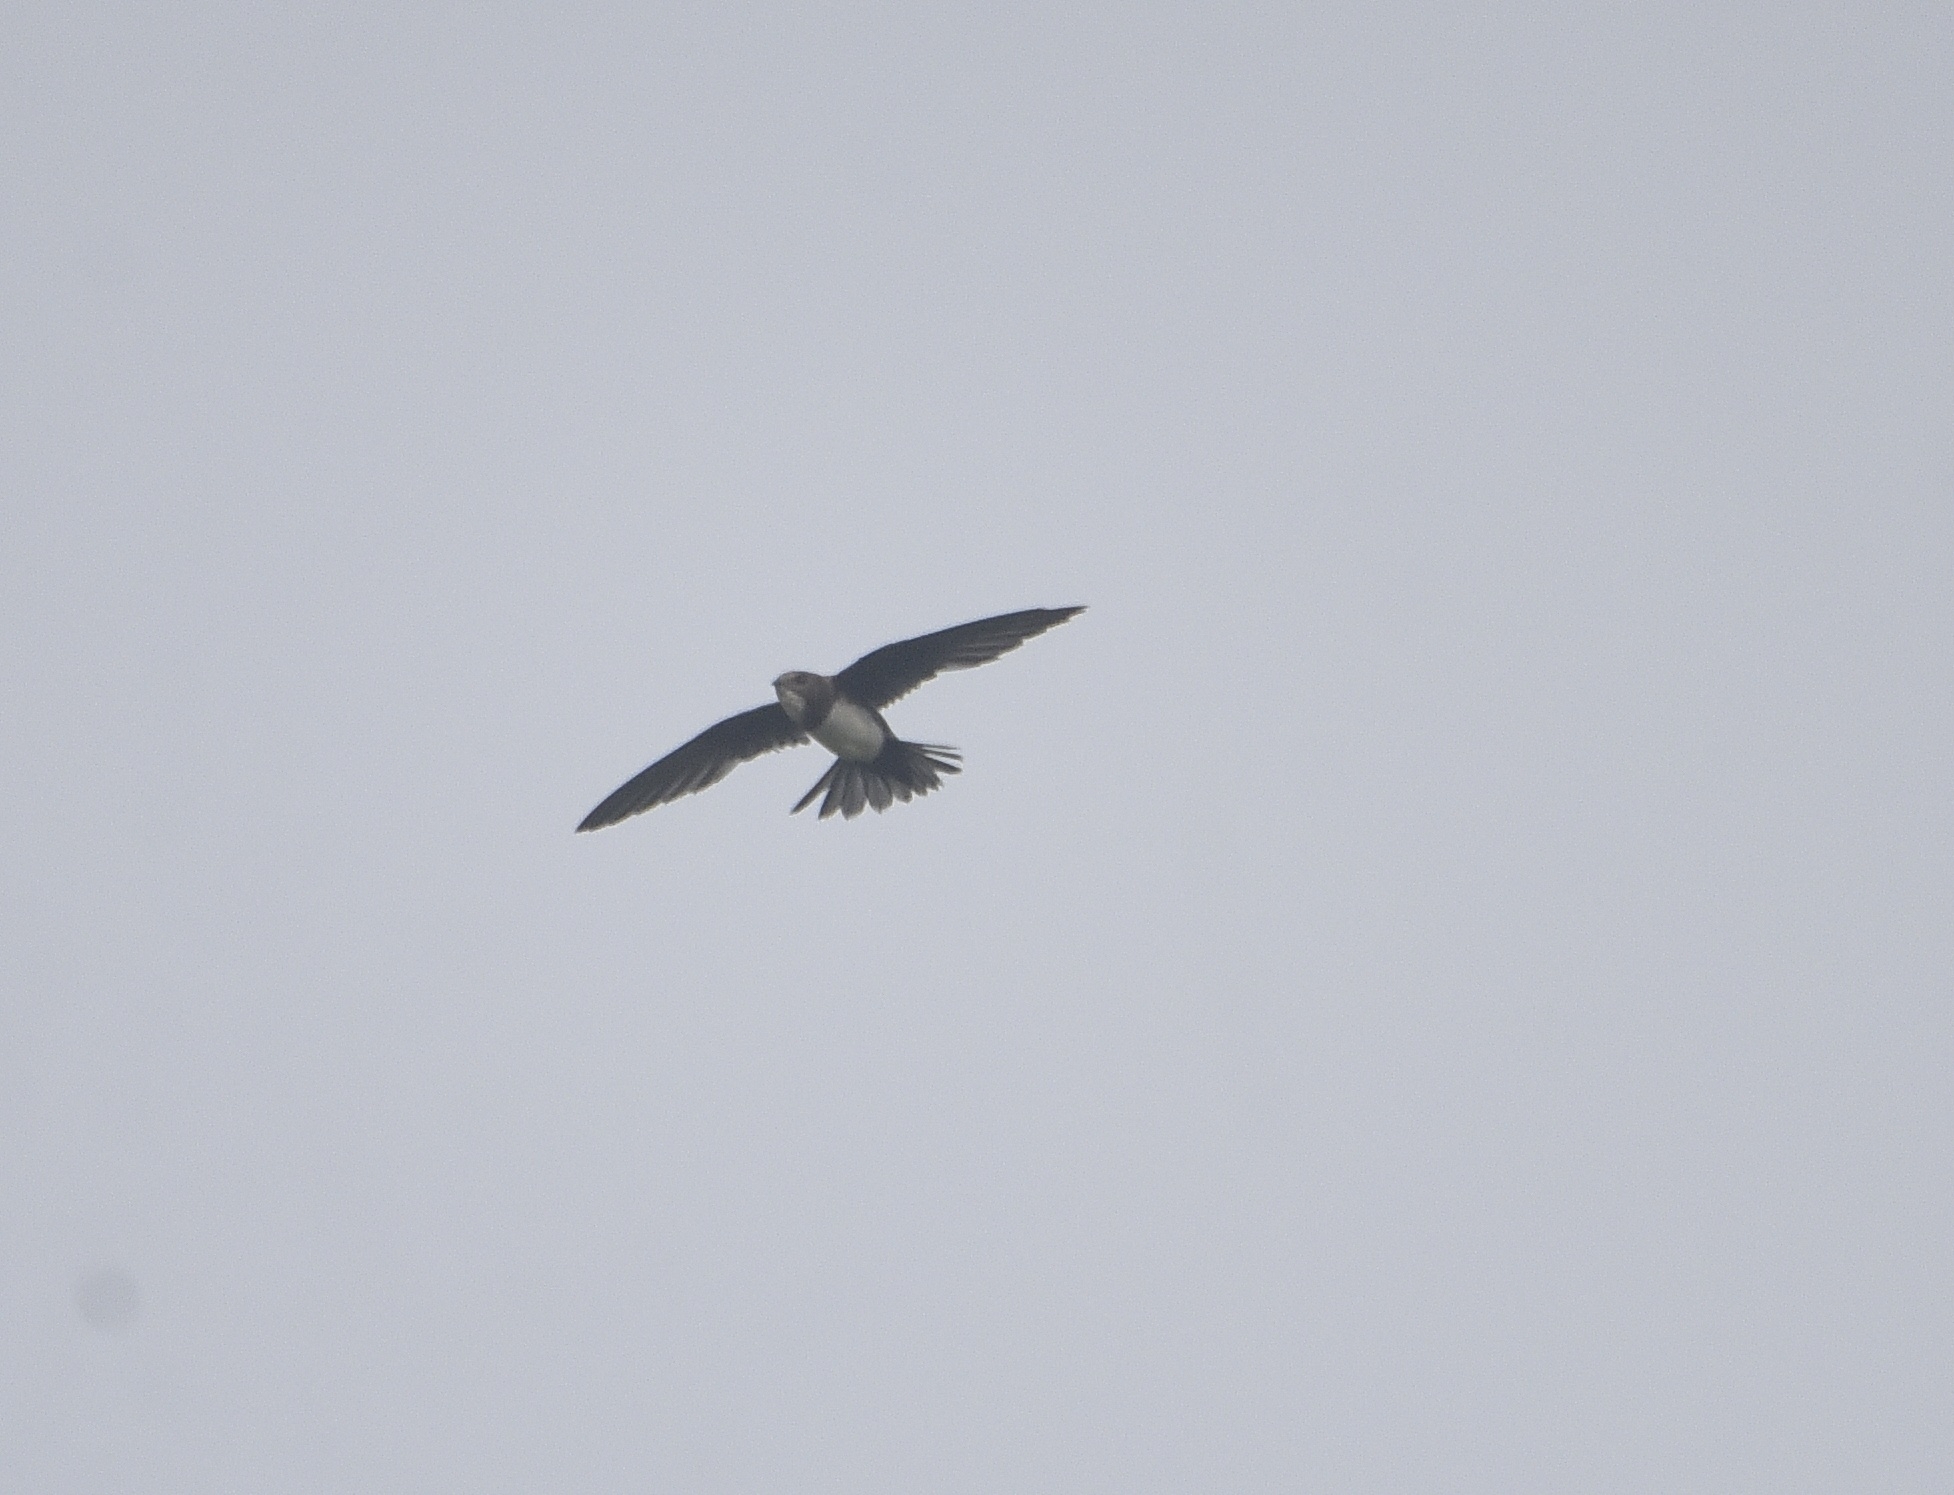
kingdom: Animalia
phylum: Chordata
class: Aves
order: Apodiformes
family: Apodidae
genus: Tachymarptis
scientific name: Tachymarptis melba
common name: Alpine swift
